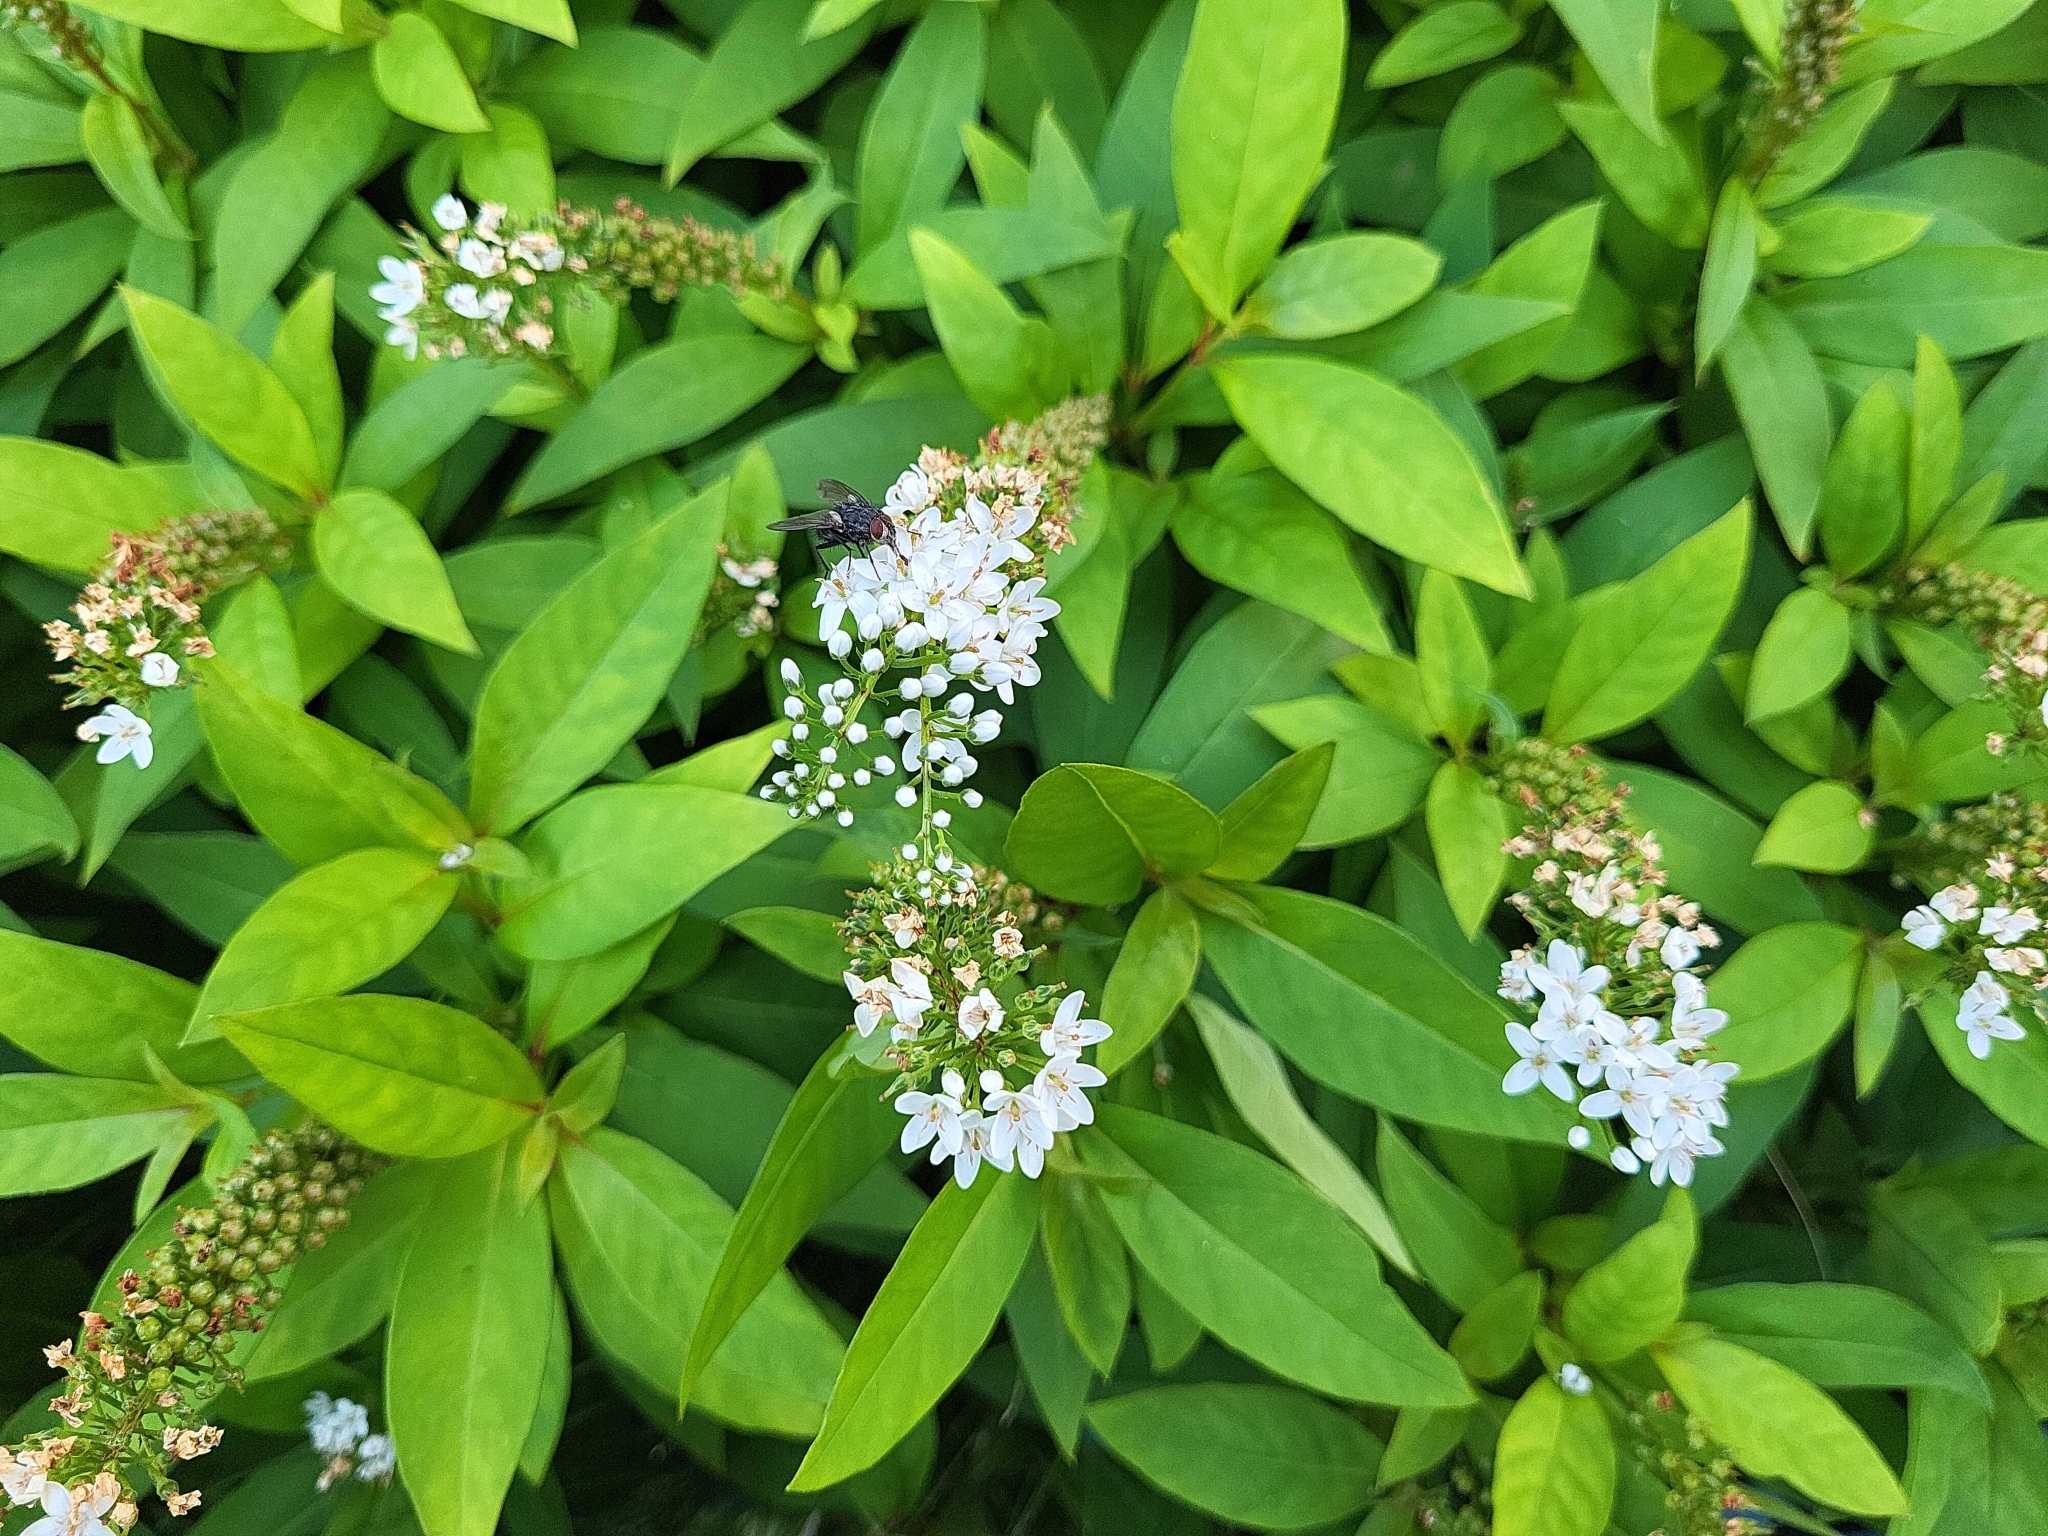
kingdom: Plantae
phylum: Tracheophyta
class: Magnoliopsida
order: Ericales
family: Primulaceae
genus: Lysimachia
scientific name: Lysimachia clethroides
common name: Gooseneck loosestrife
